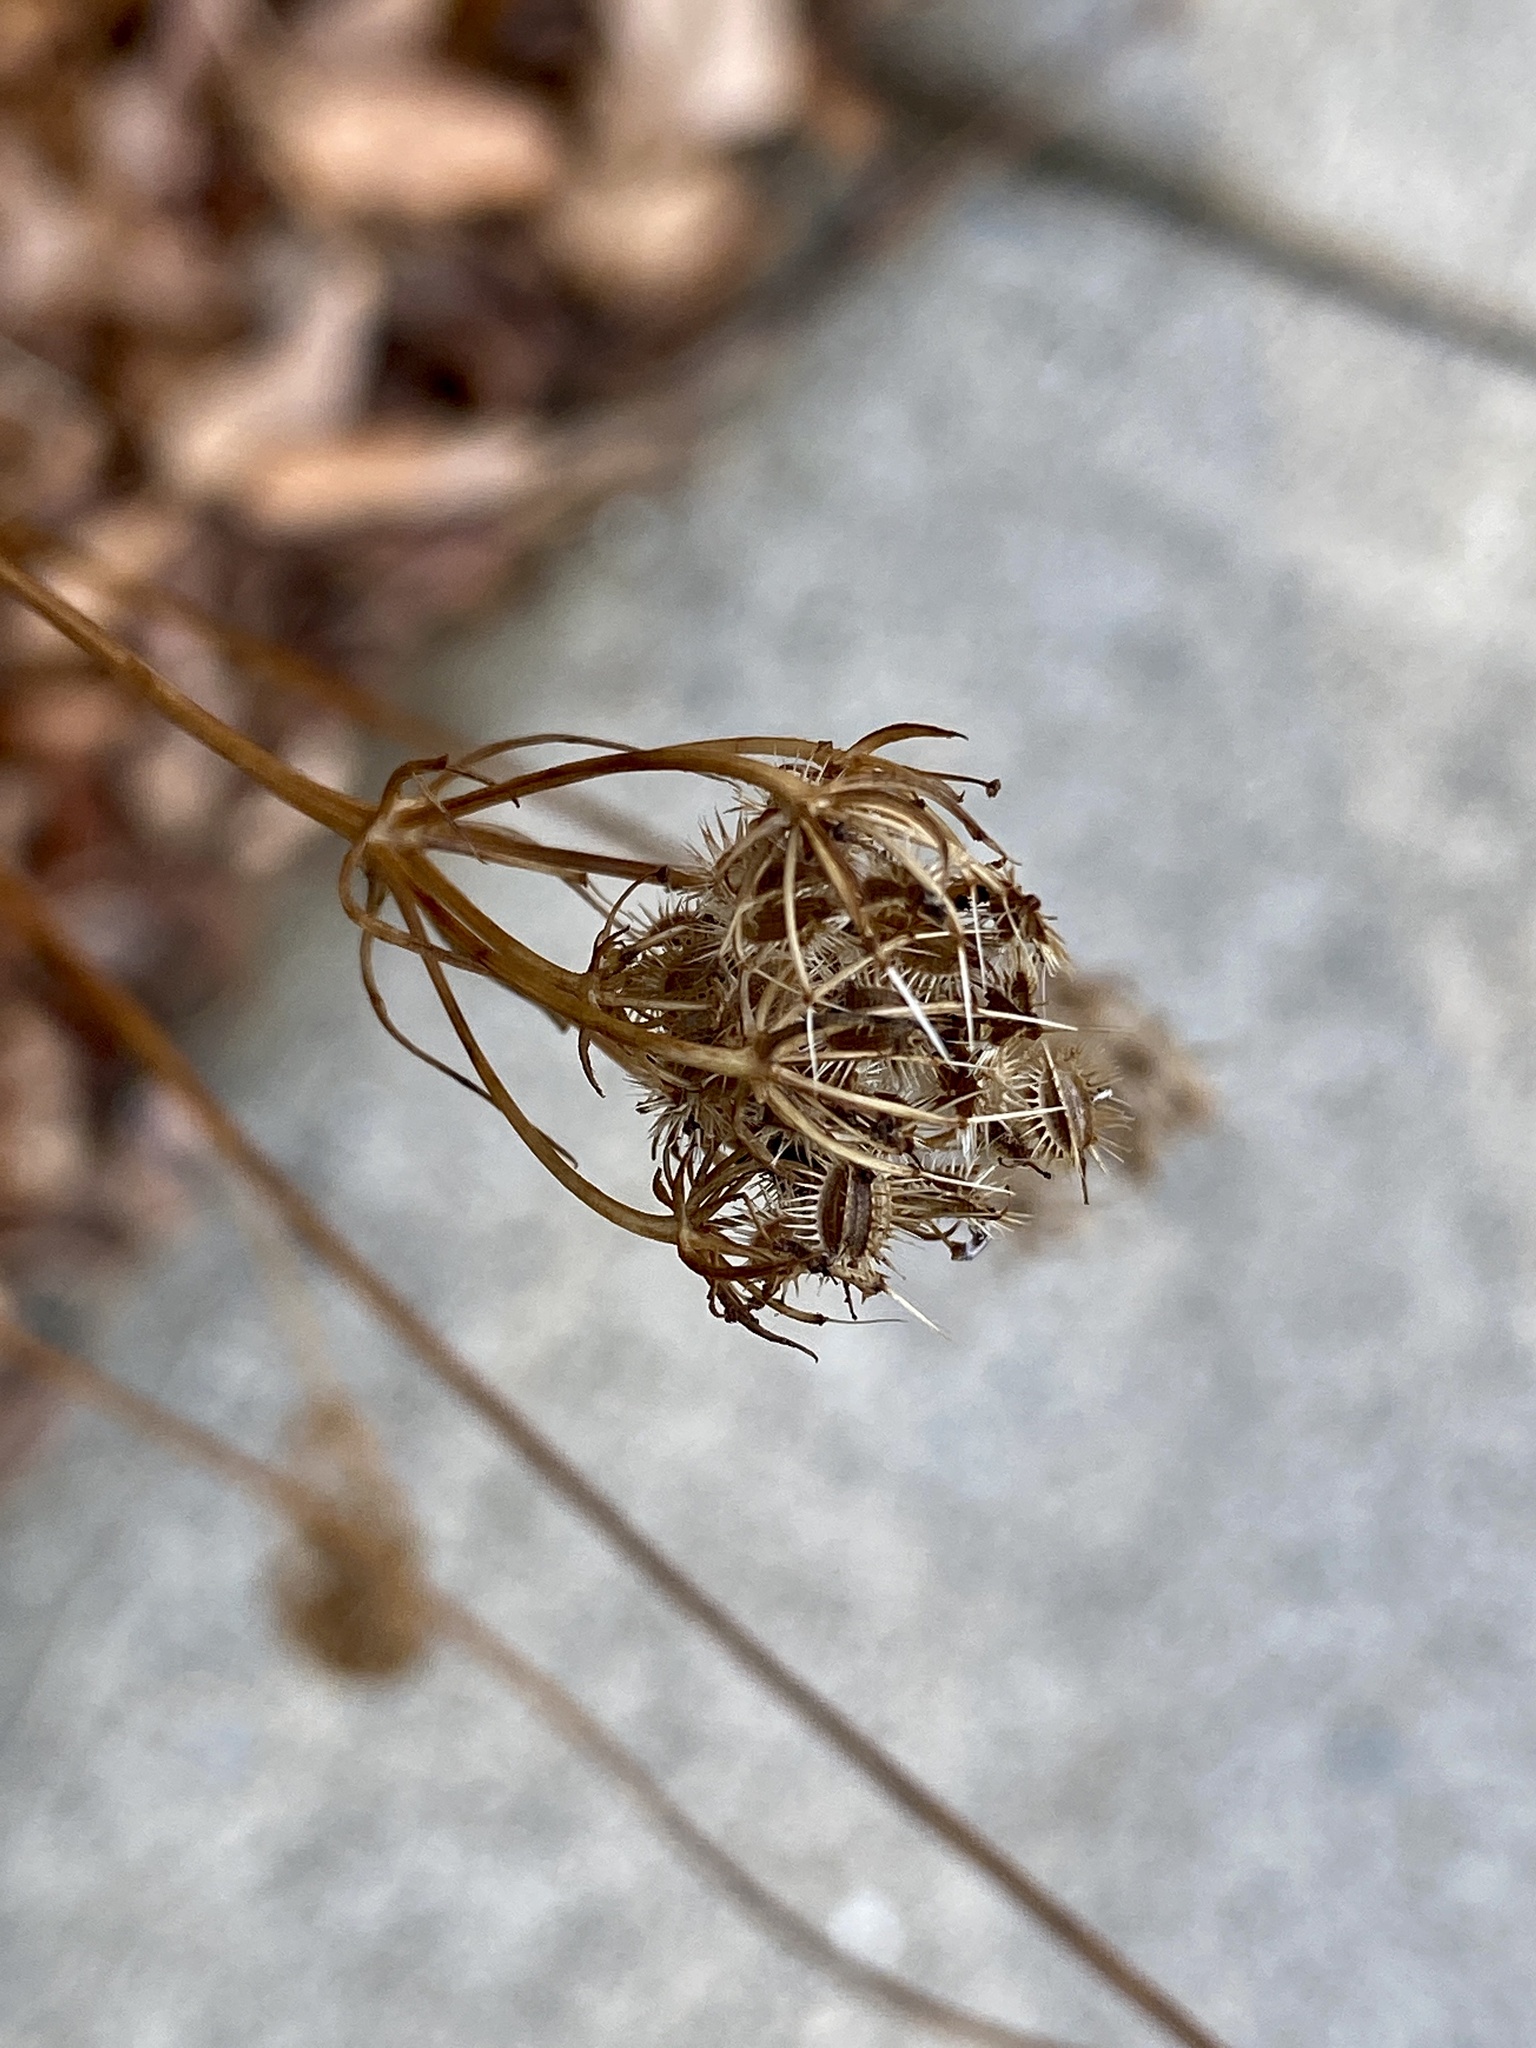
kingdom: Plantae
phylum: Tracheophyta
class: Magnoliopsida
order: Apiales
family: Apiaceae
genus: Daucus
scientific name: Daucus carota
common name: Wild carrot
